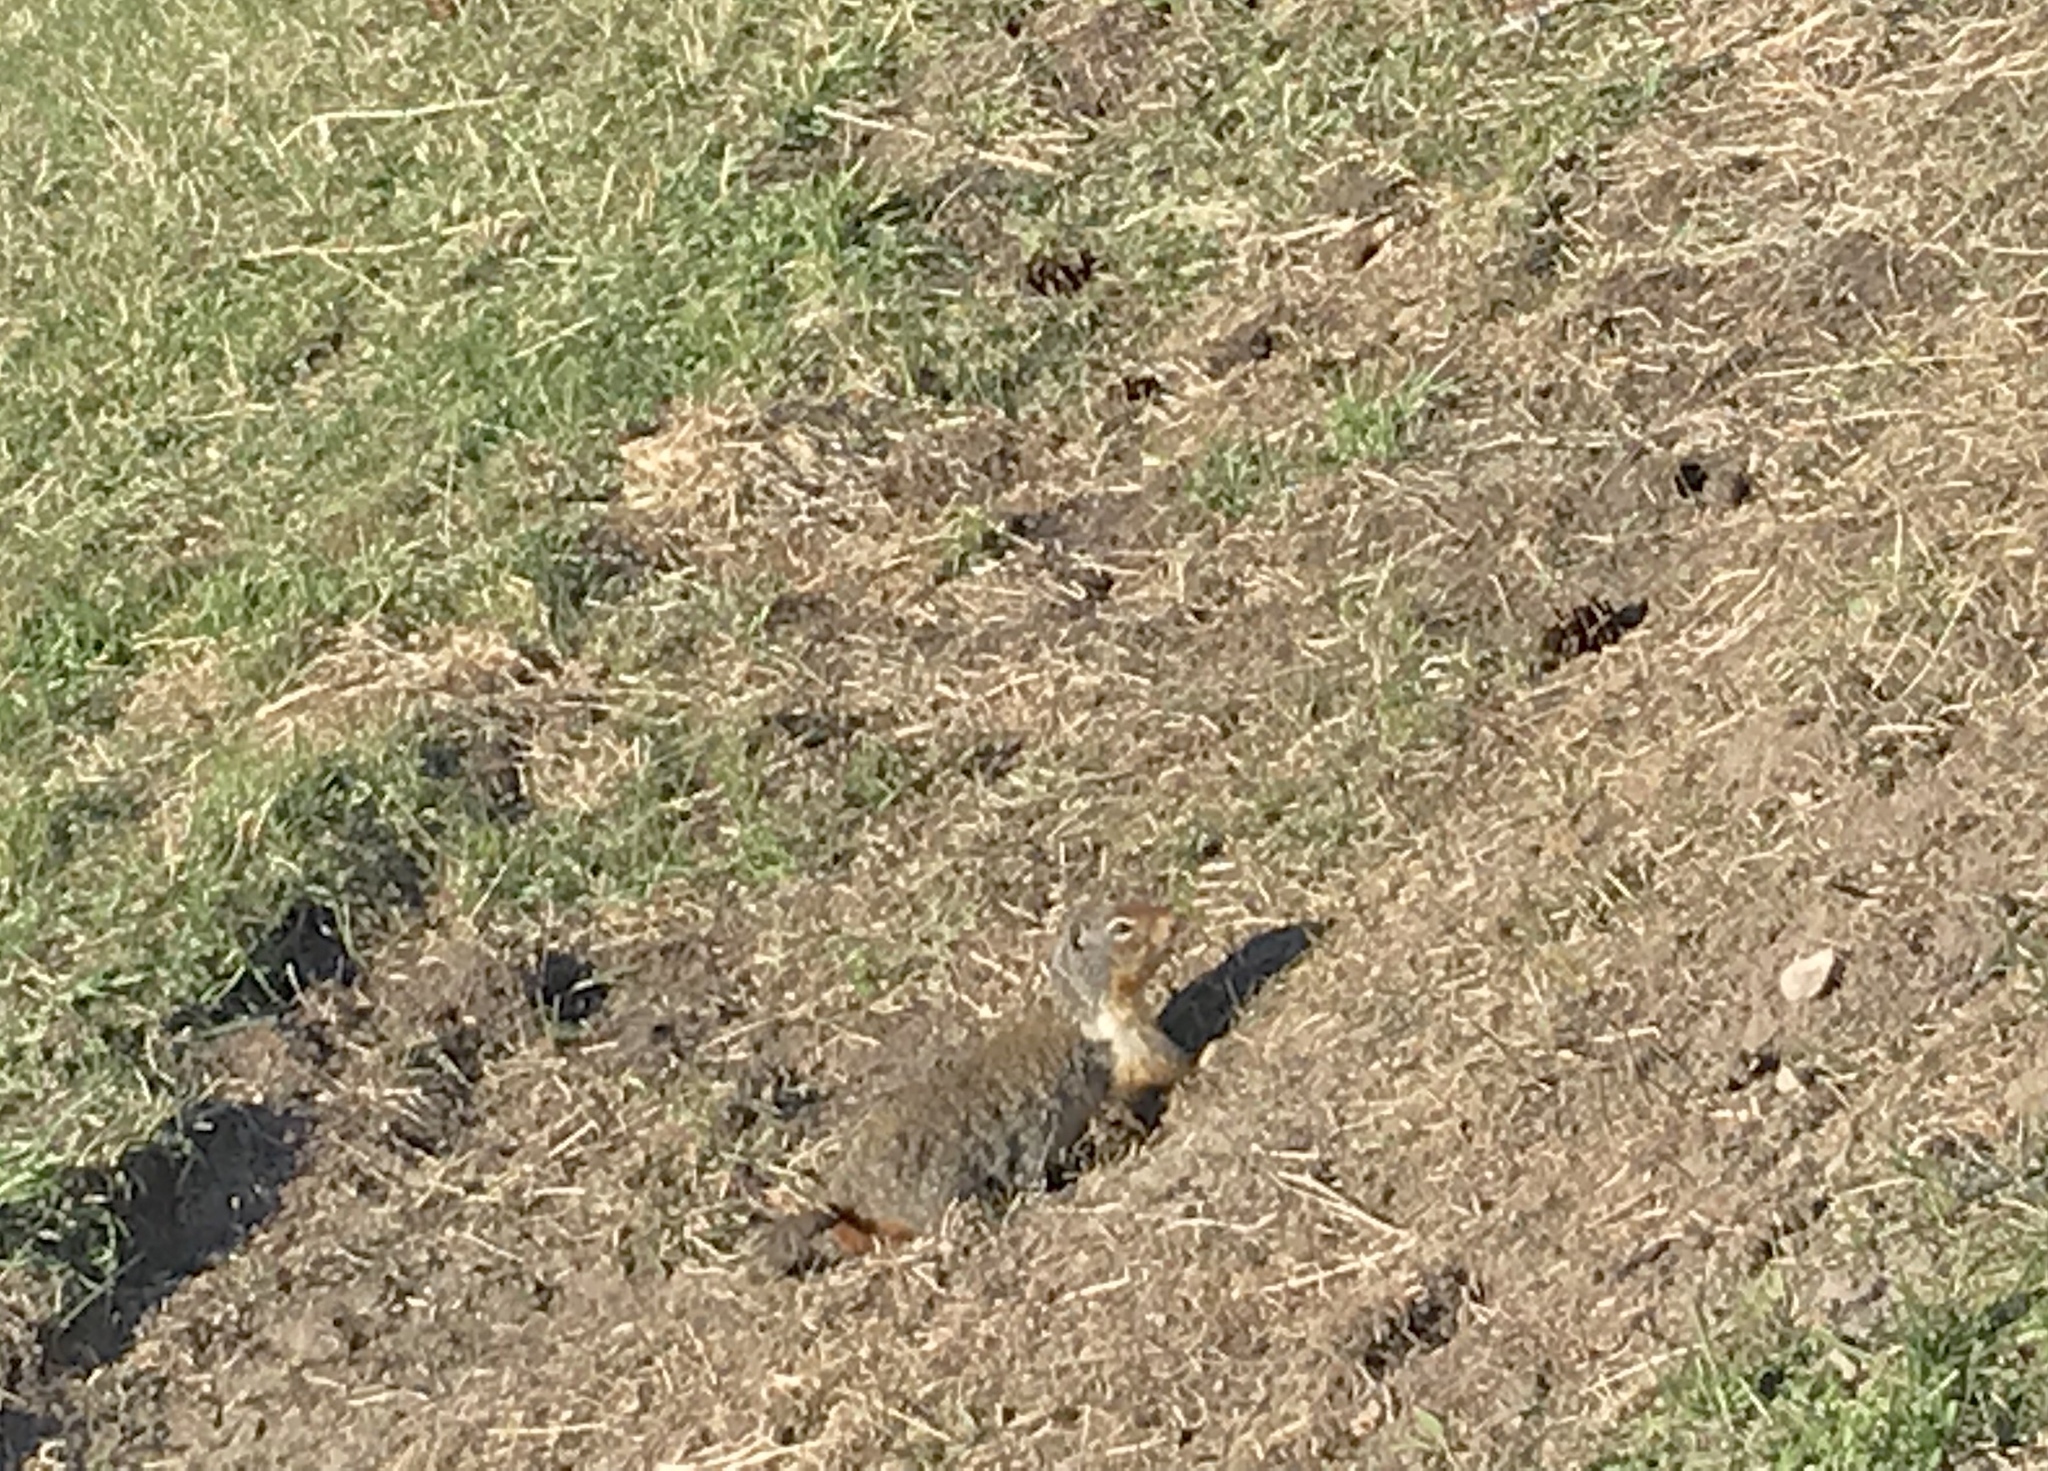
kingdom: Animalia
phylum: Chordata
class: Mammalia
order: Rodentia
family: Sciuridae
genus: Urocitellus
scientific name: Urocitellus columbianus
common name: Columbian ground squirrel
